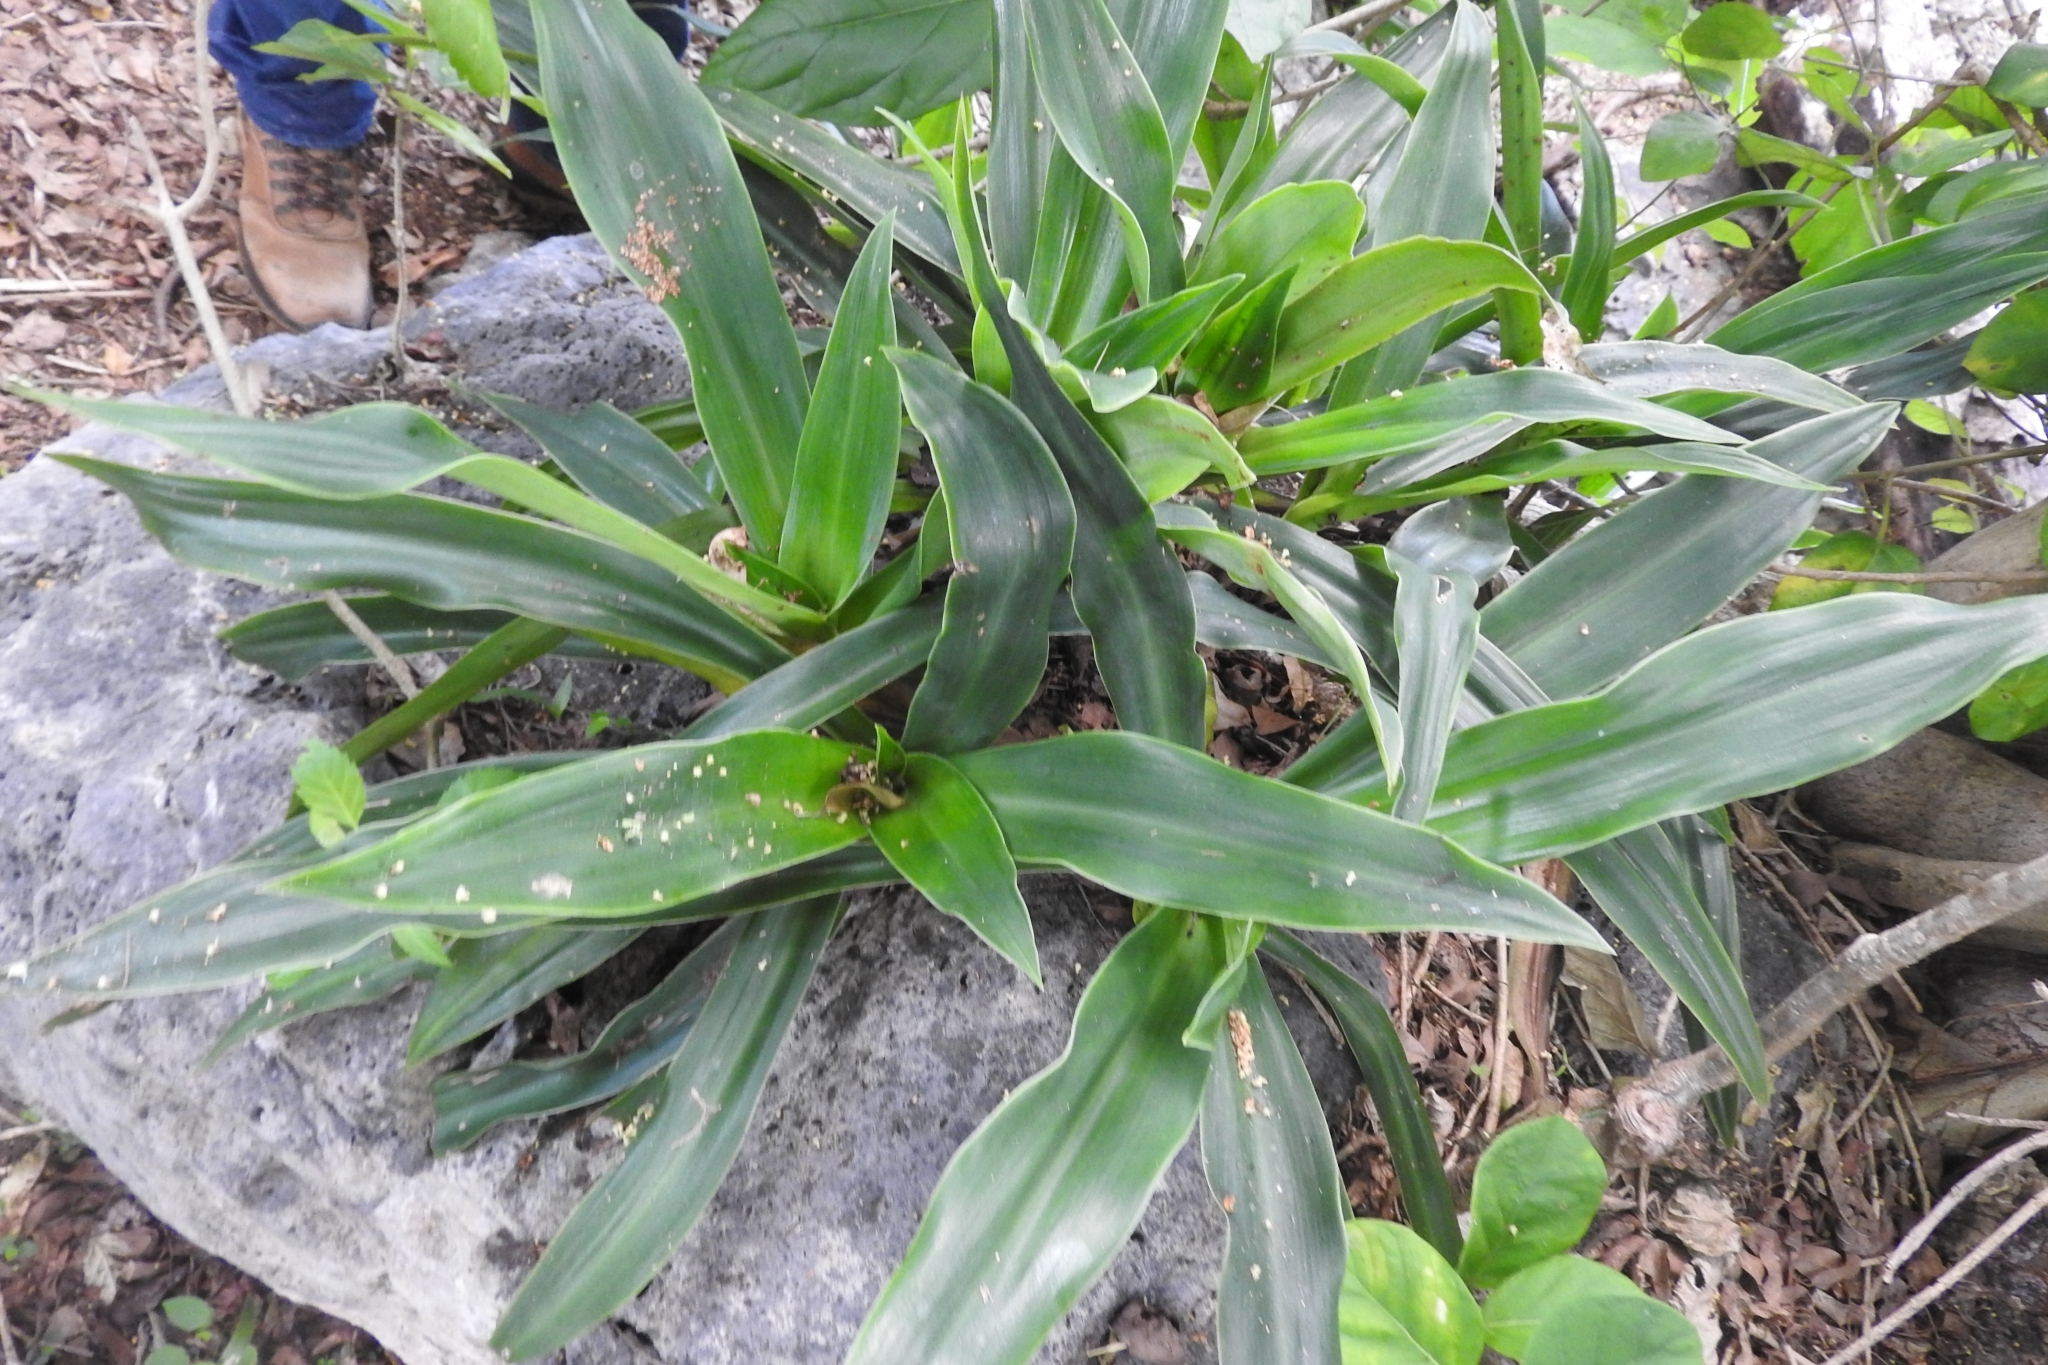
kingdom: Plantae
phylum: Tracheophyta
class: Liliopsida
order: Commelinales
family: Commelinaceae
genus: Callisia
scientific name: Callisia fragrans
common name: Basketplant
